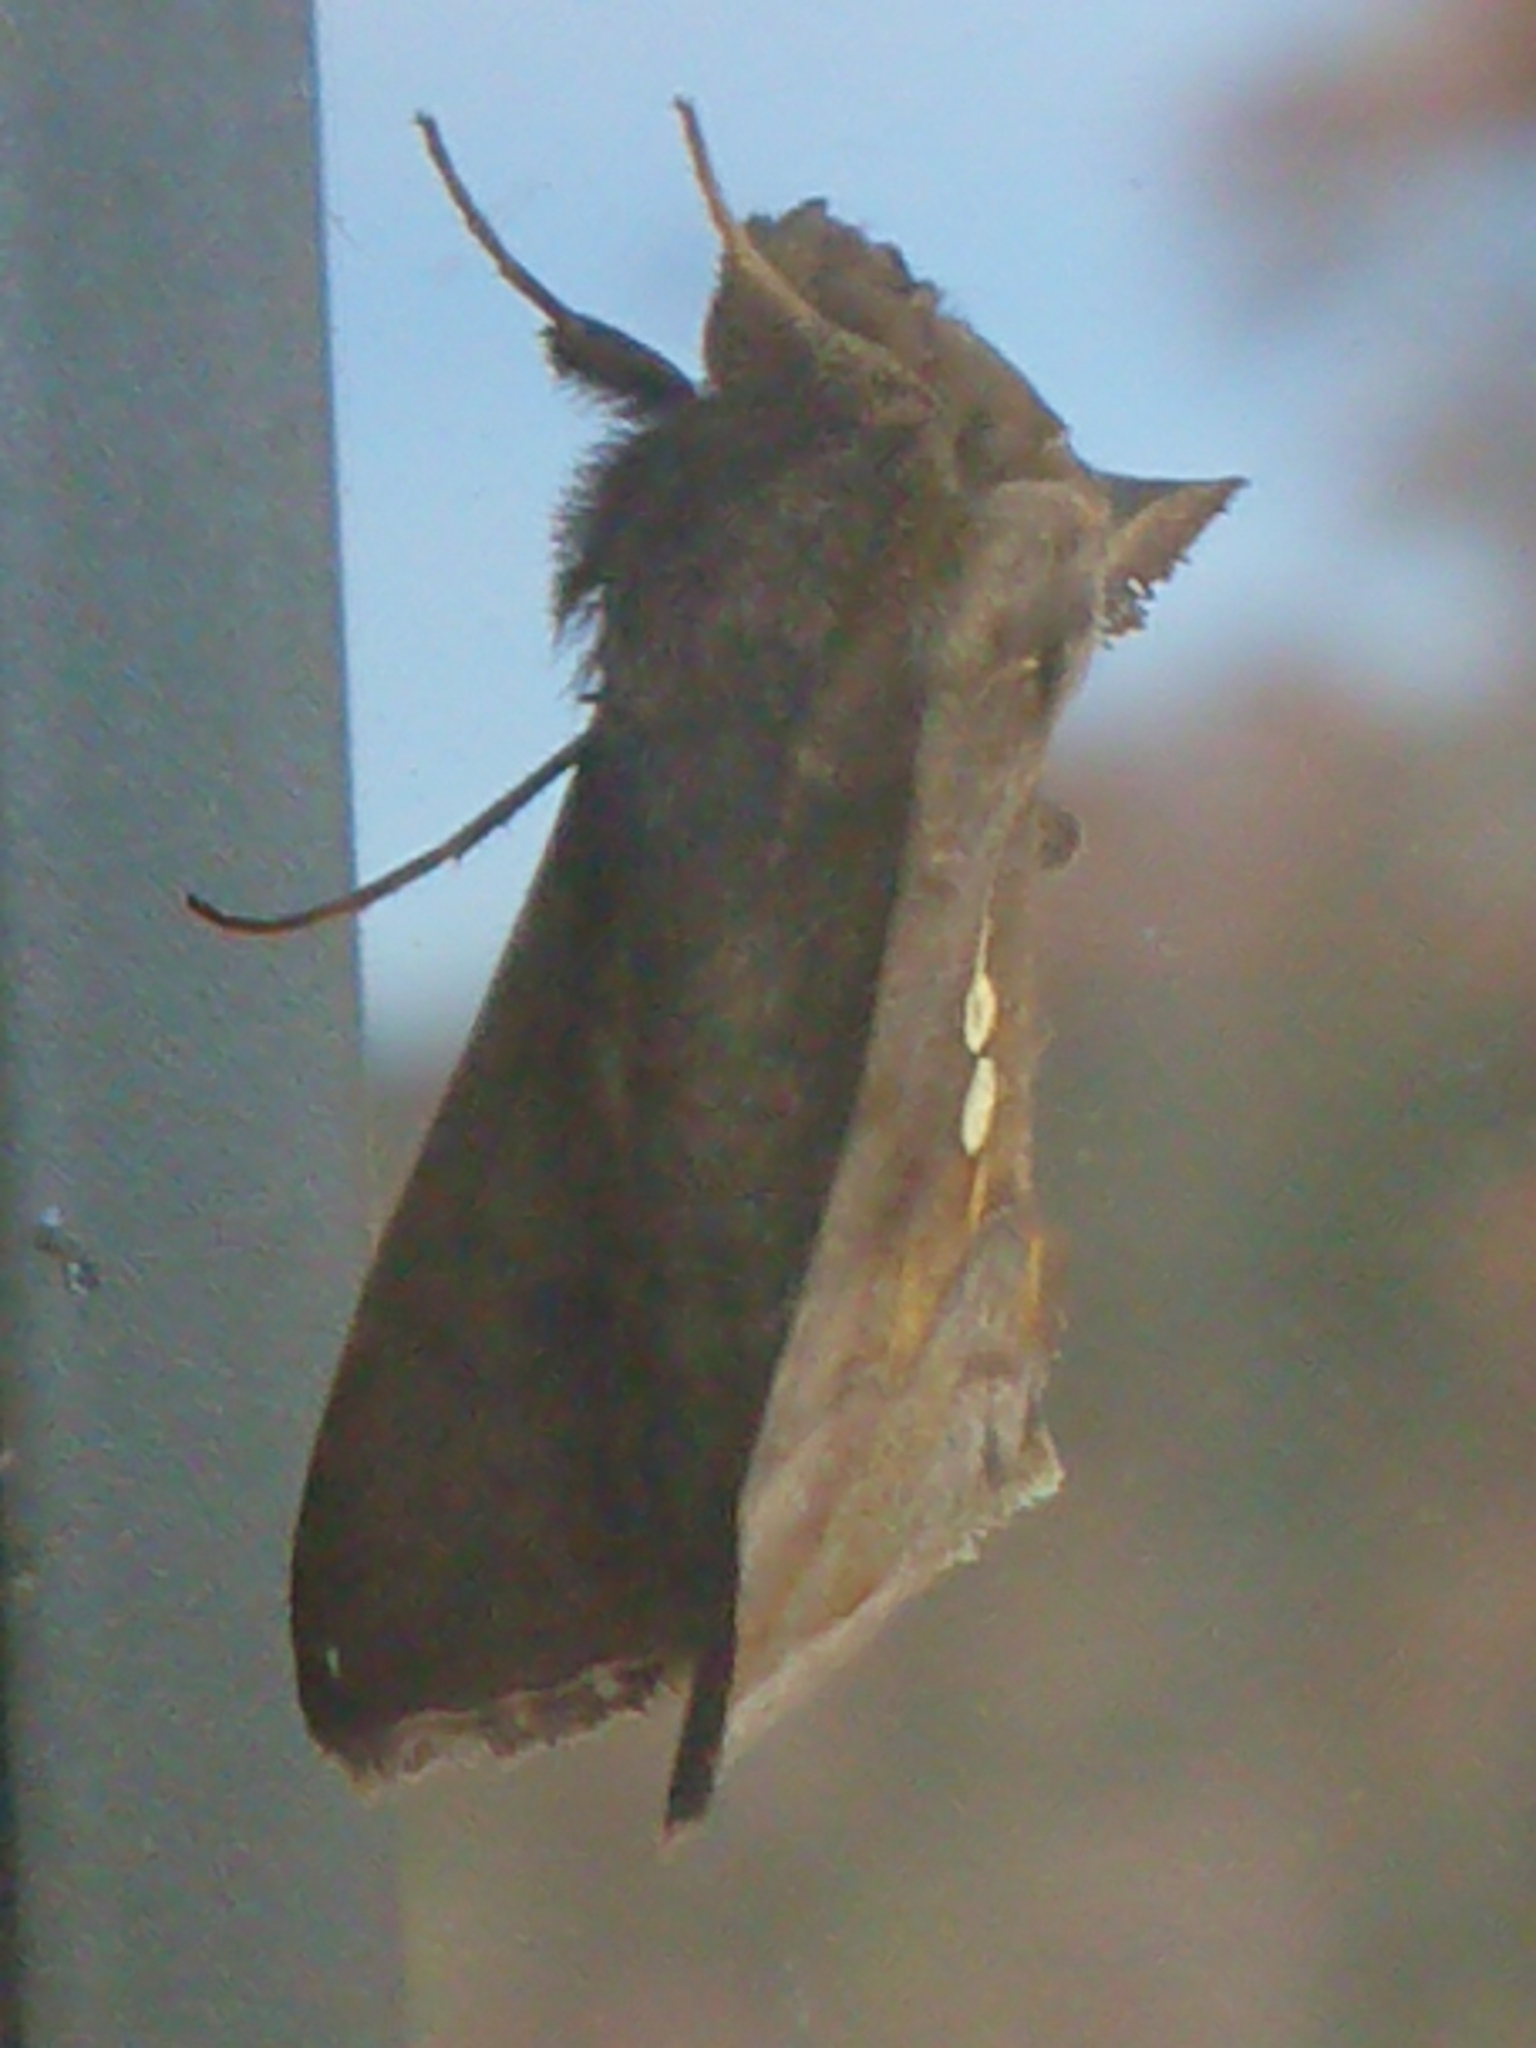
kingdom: Animalia
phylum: Arthropoda
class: Insecta
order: Lepidoptera
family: Noctuidae
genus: Chrysodeixis
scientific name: Chrysodeixis eriosoma
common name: Green garden looper
